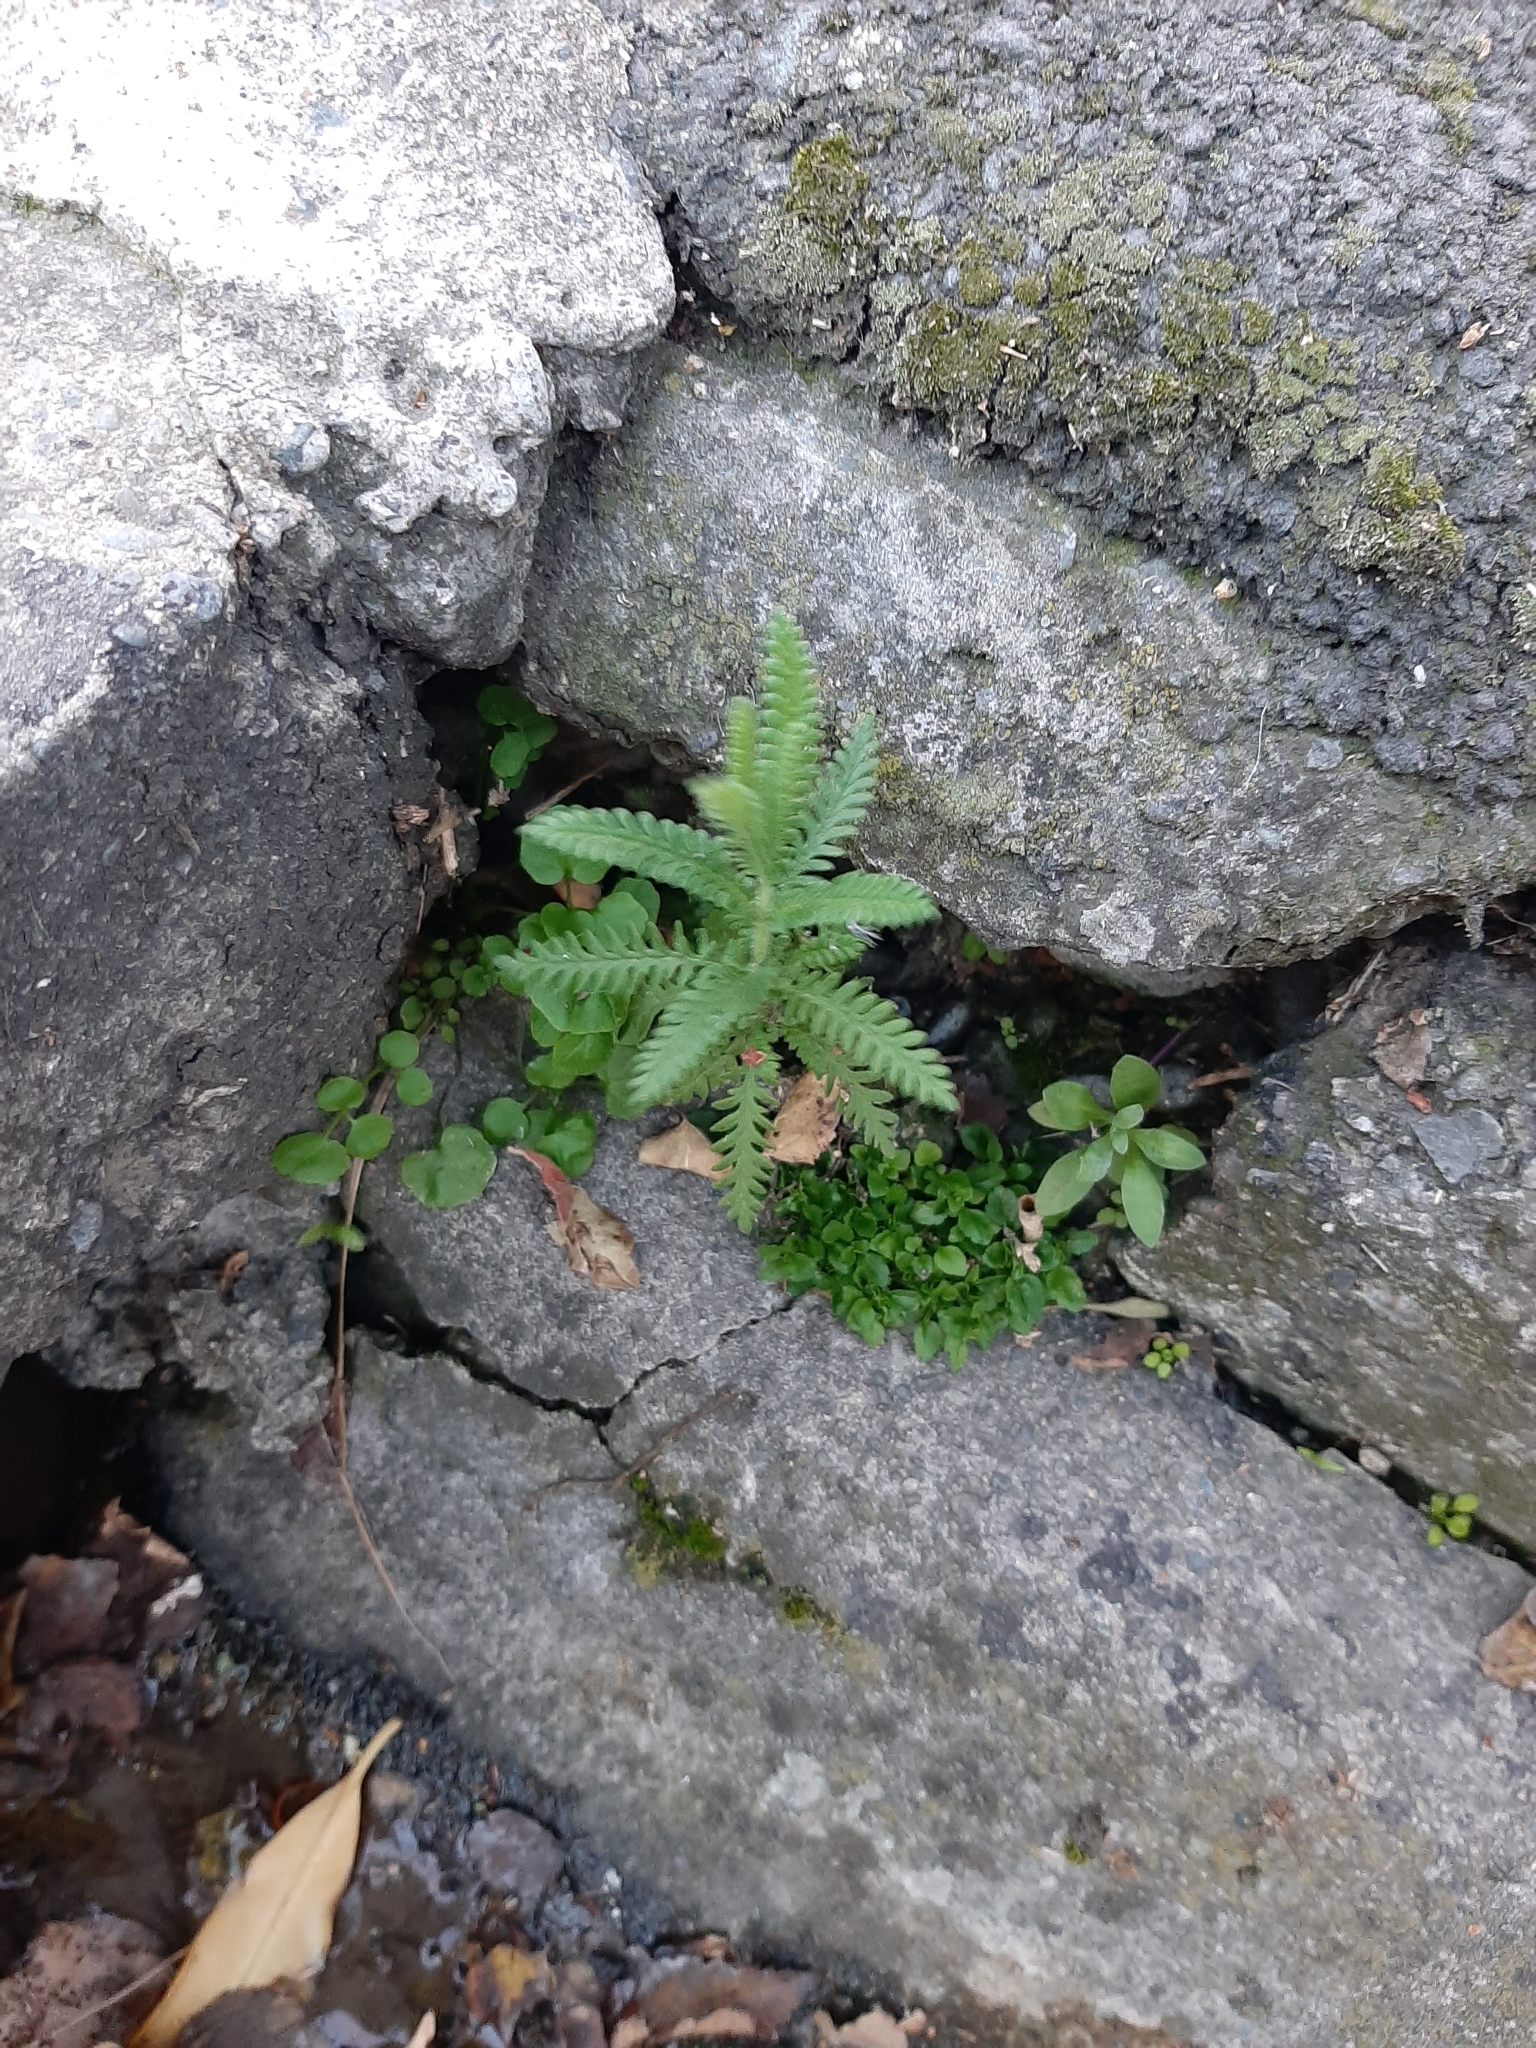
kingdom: Plantae
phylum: Tracheophyta
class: Magnoliopsida
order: Lamiales
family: Lamiaceae
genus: Lavandula
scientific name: Lavandula dentata
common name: French lavender
